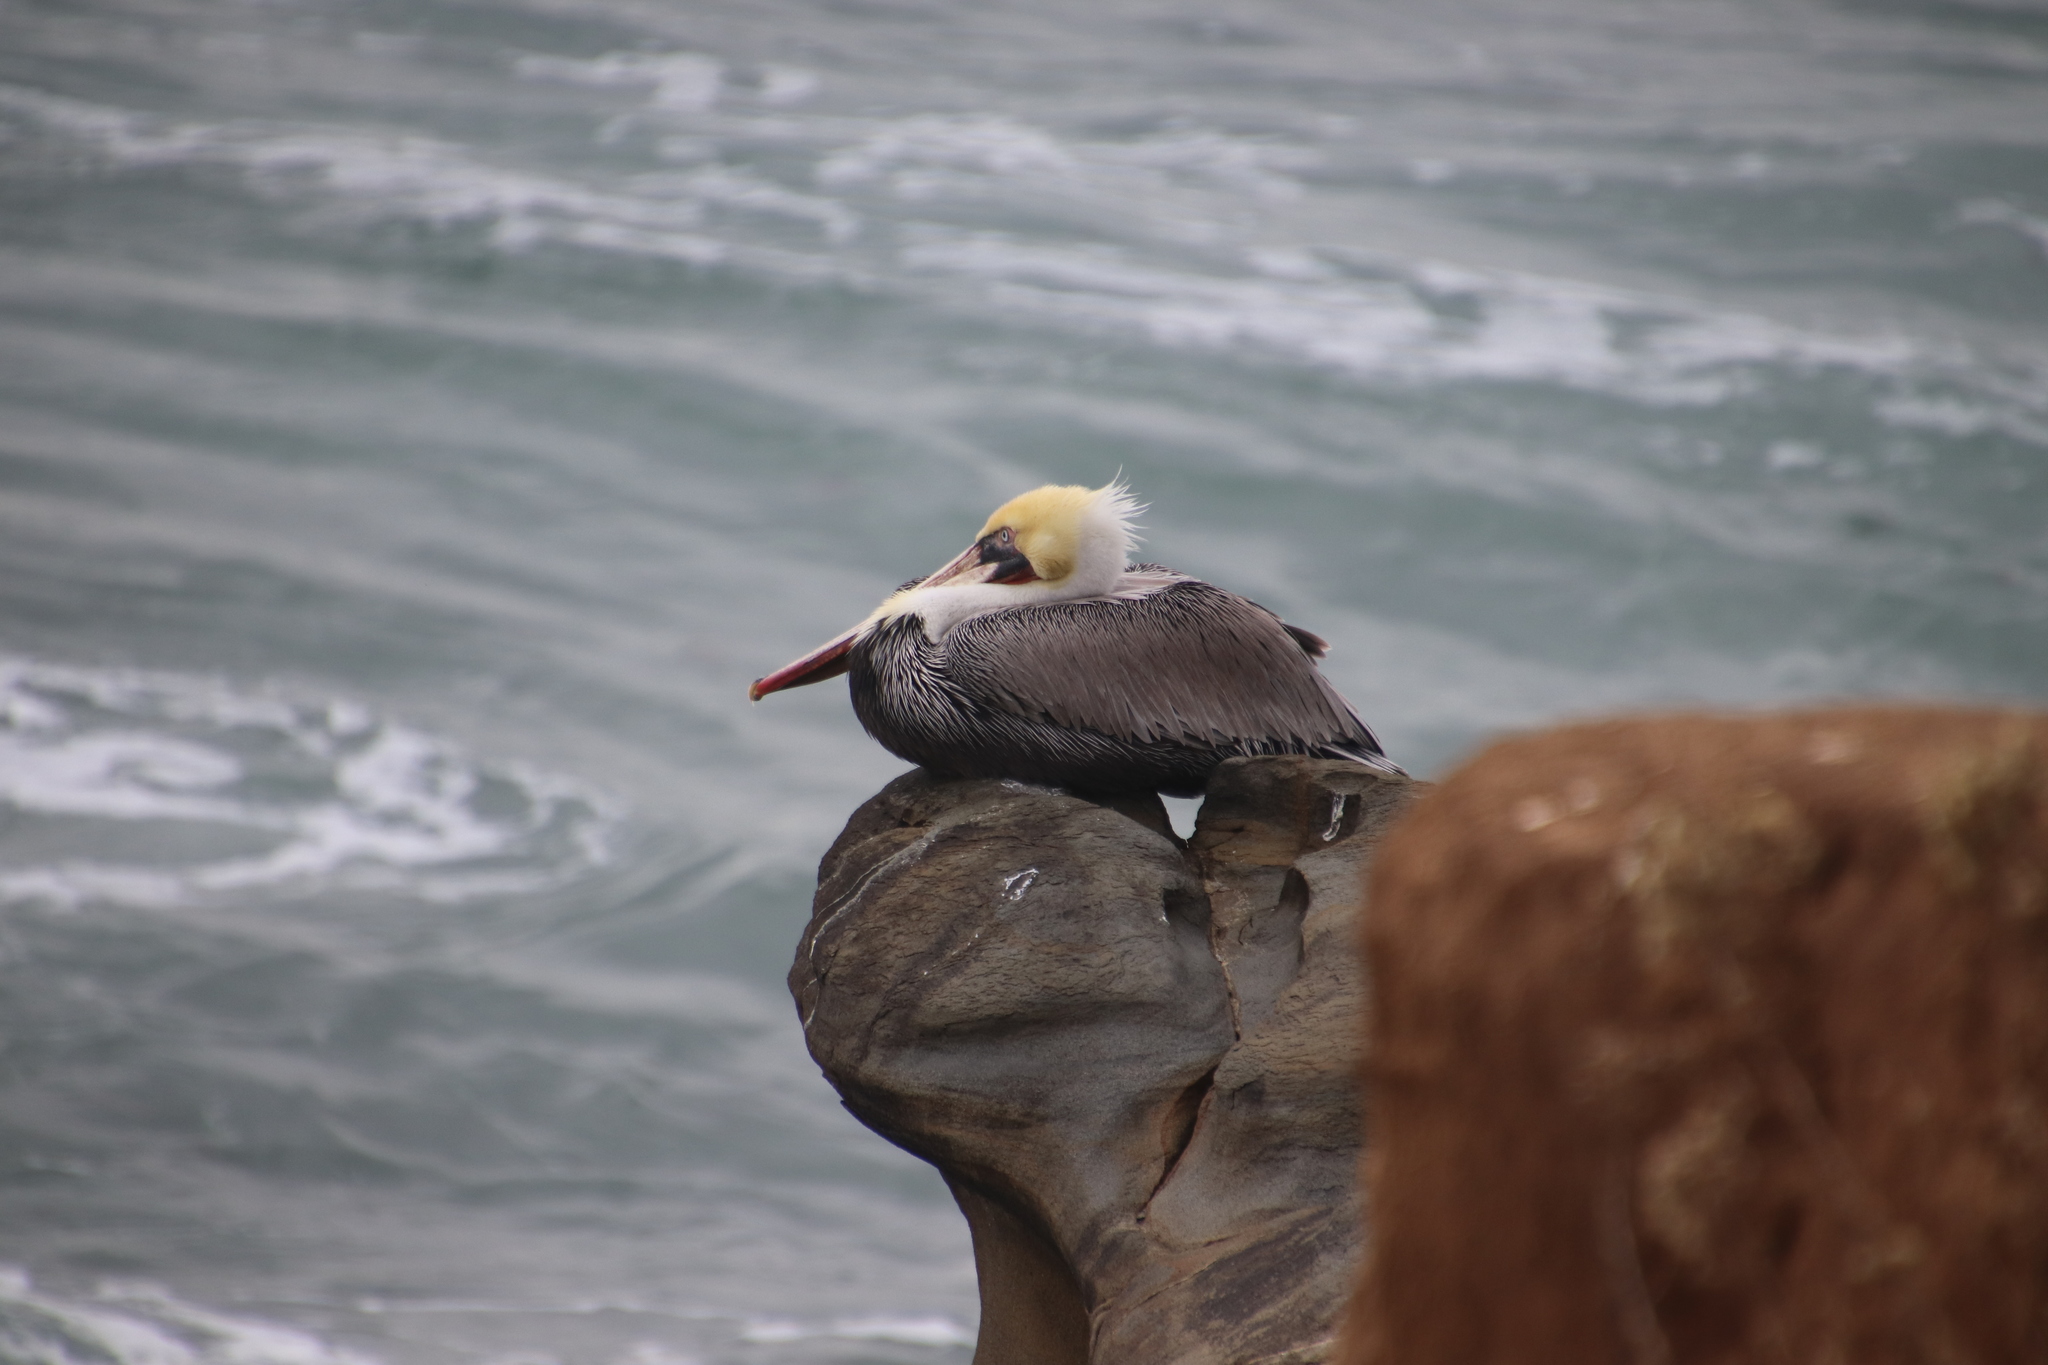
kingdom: Animalia
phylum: Chordata
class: Aves
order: Pelecaniformes
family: Pelecanidae
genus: Pelecanus
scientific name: Pelecanus occidentalis
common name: Brown pelican
